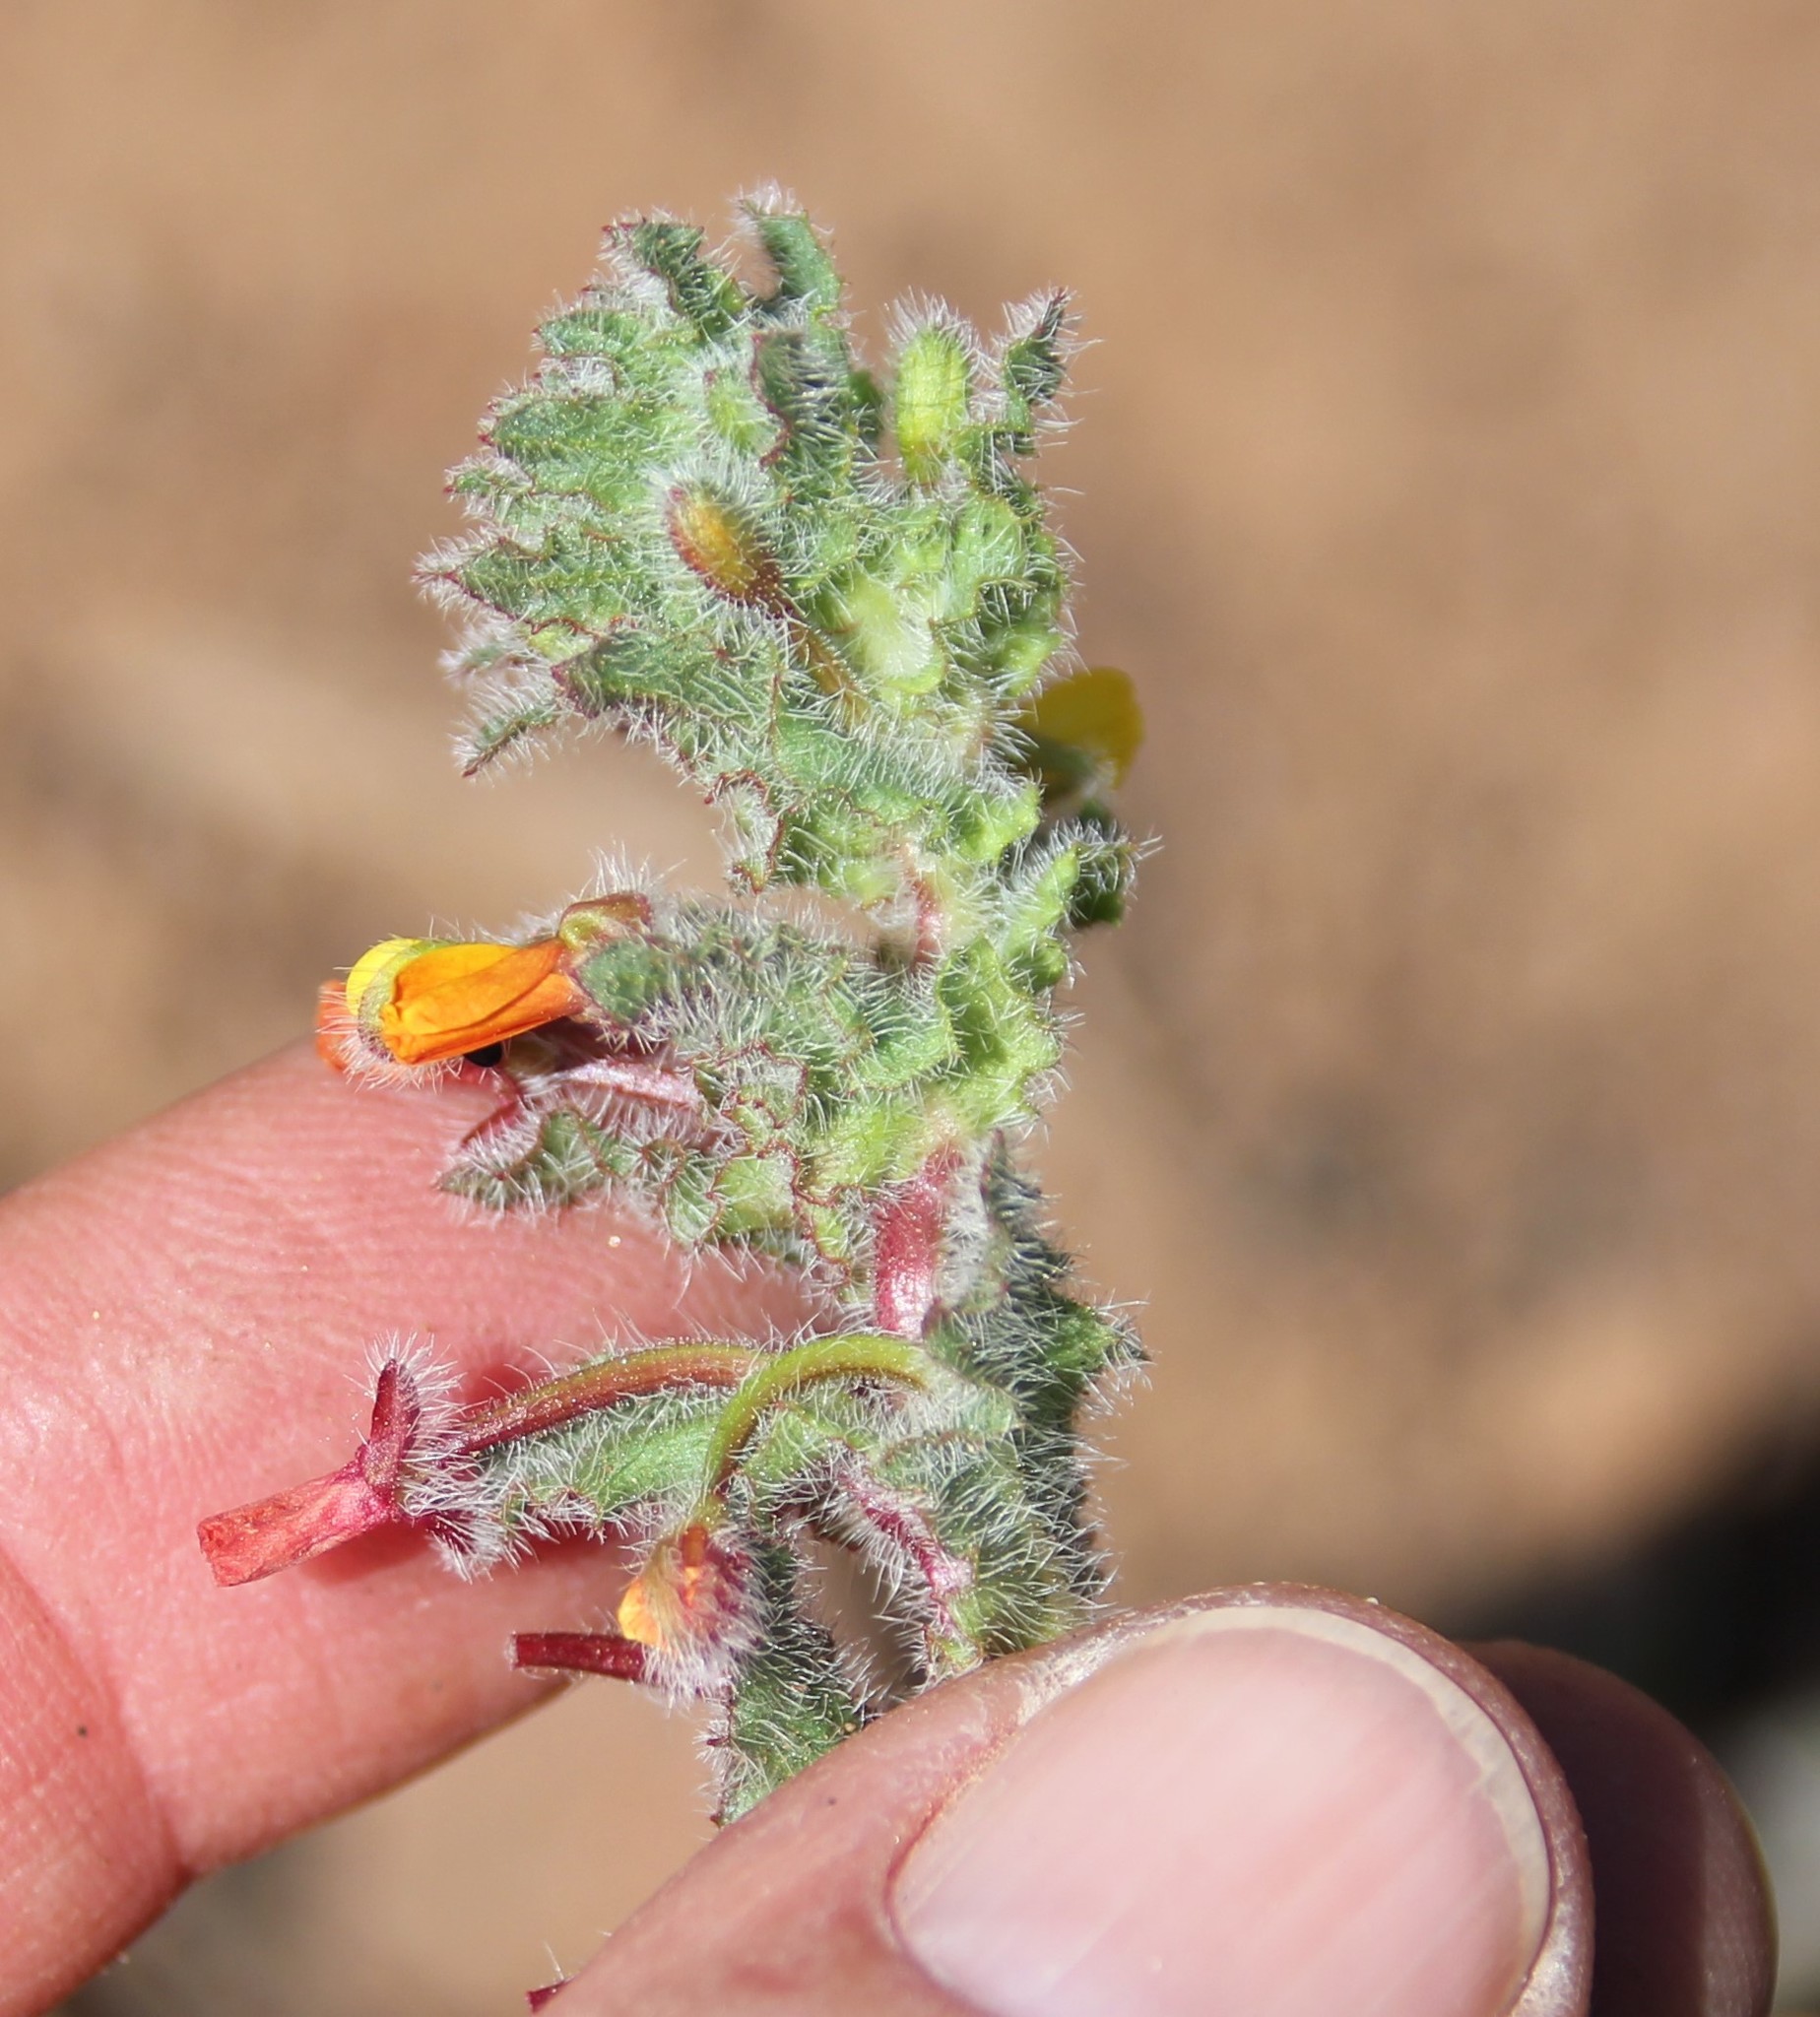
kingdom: Plantae
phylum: Tracheophyta
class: Magnoliopsida
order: Myrtales
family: Onagraceae
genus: Camissoniopsis
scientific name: Camissoniopsis bistorta
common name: Southern suncup
